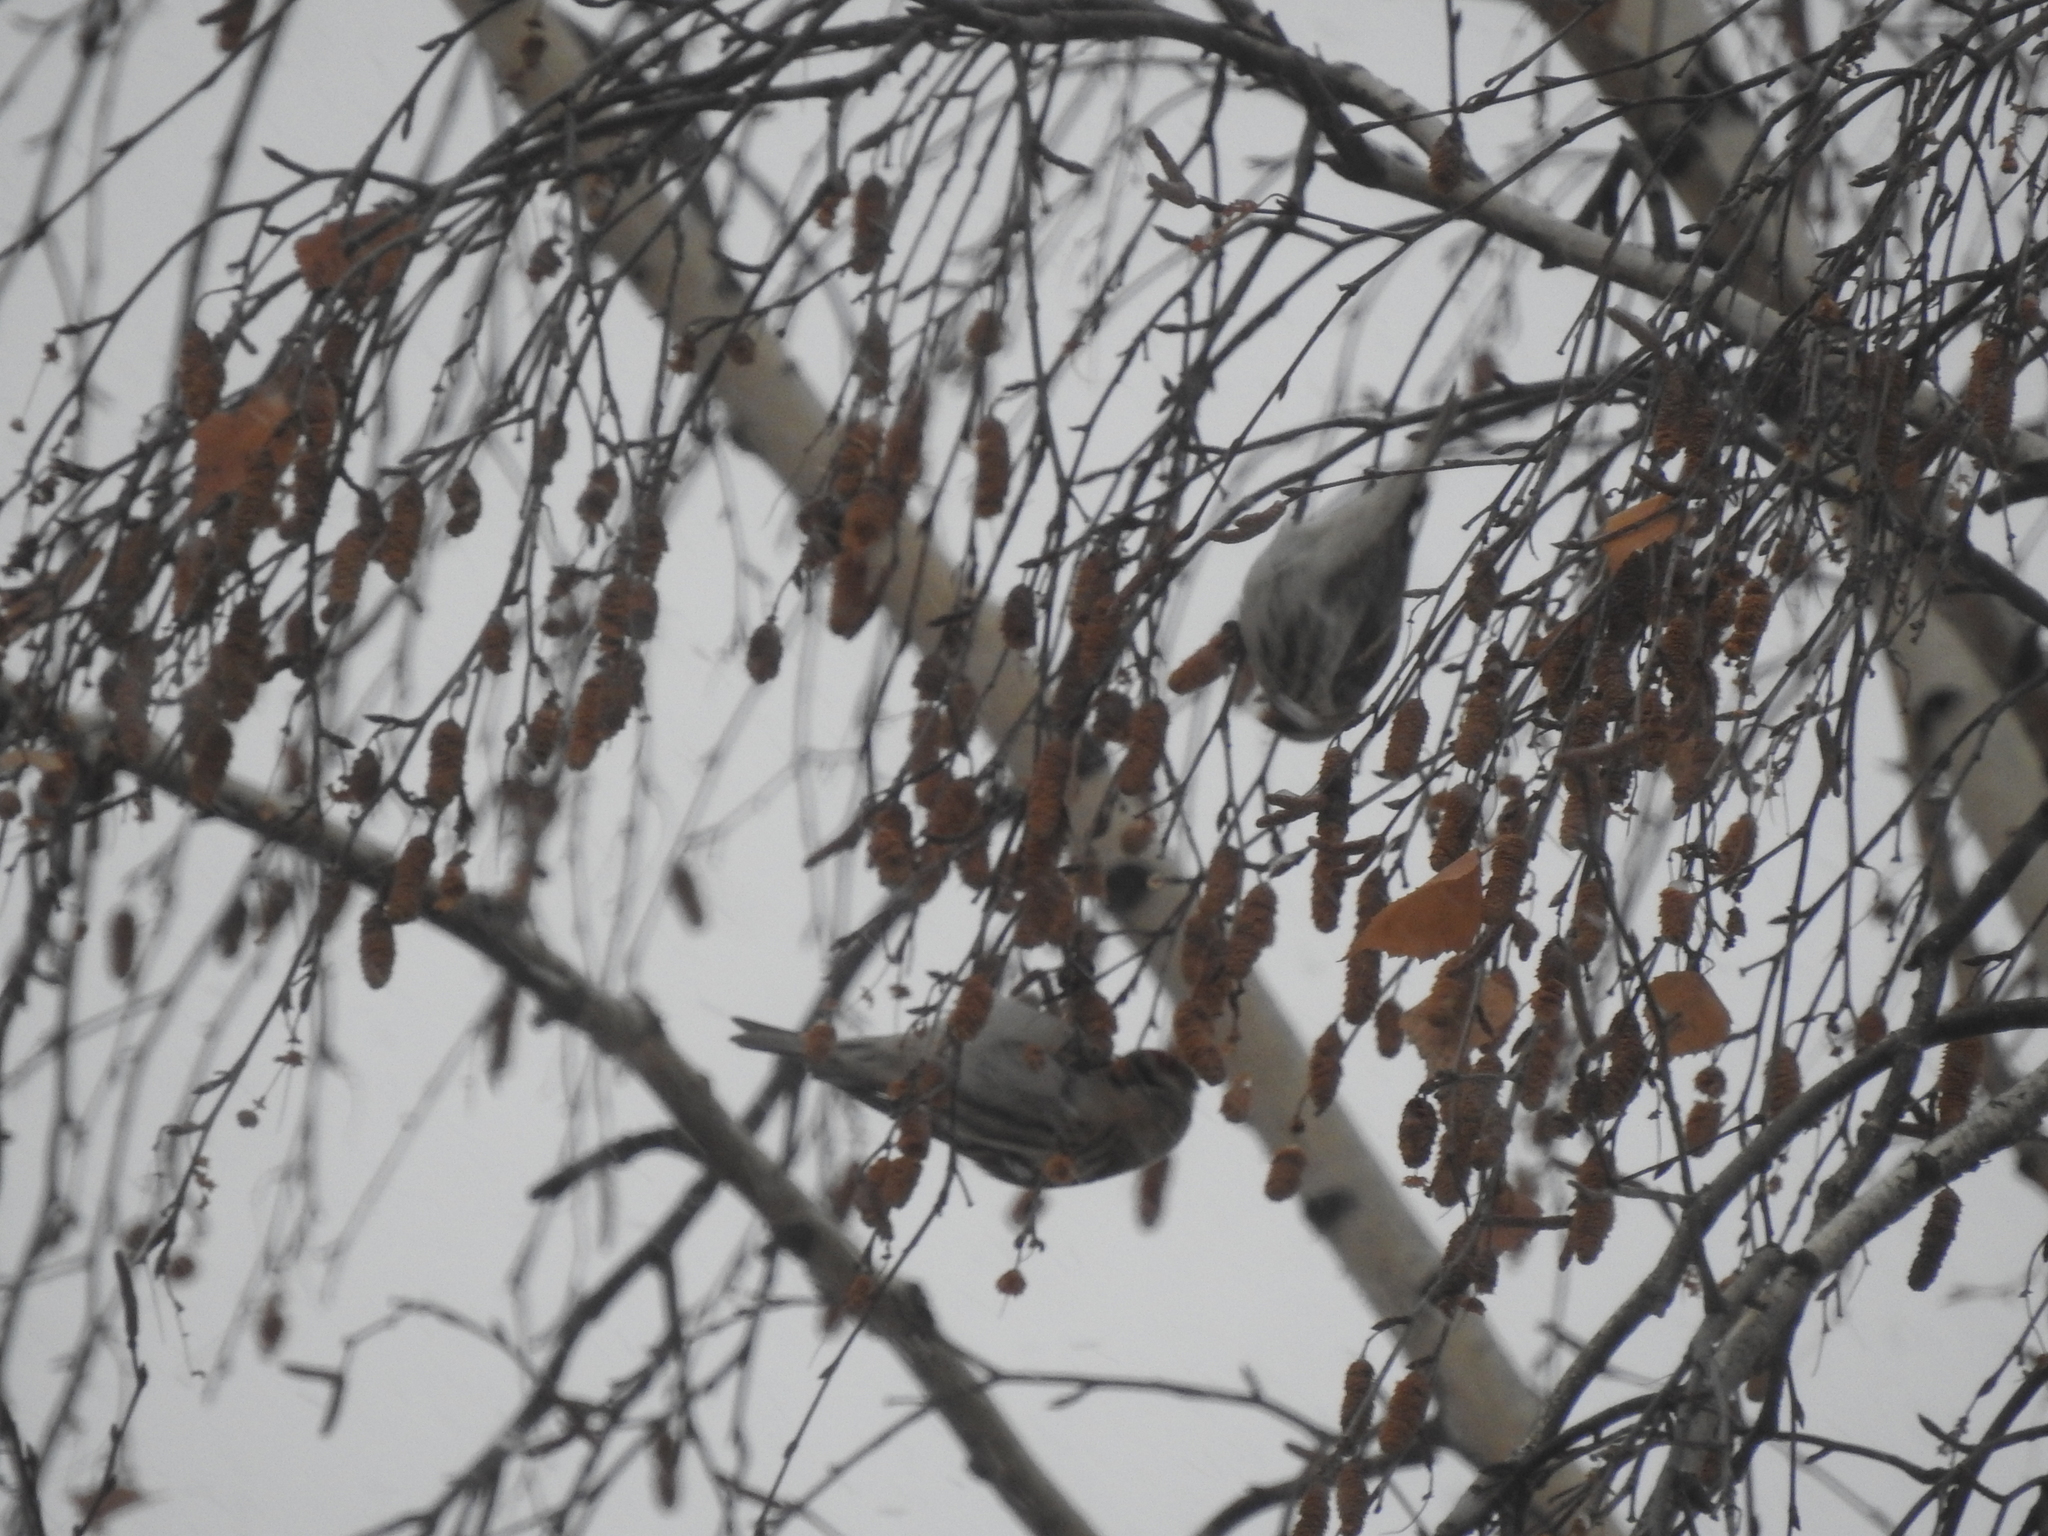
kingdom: Animalia
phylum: Chordata
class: Aves
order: Passeriformes
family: Fringillidae
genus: Acanthis
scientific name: Acanthis flammea
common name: Common redpoll
